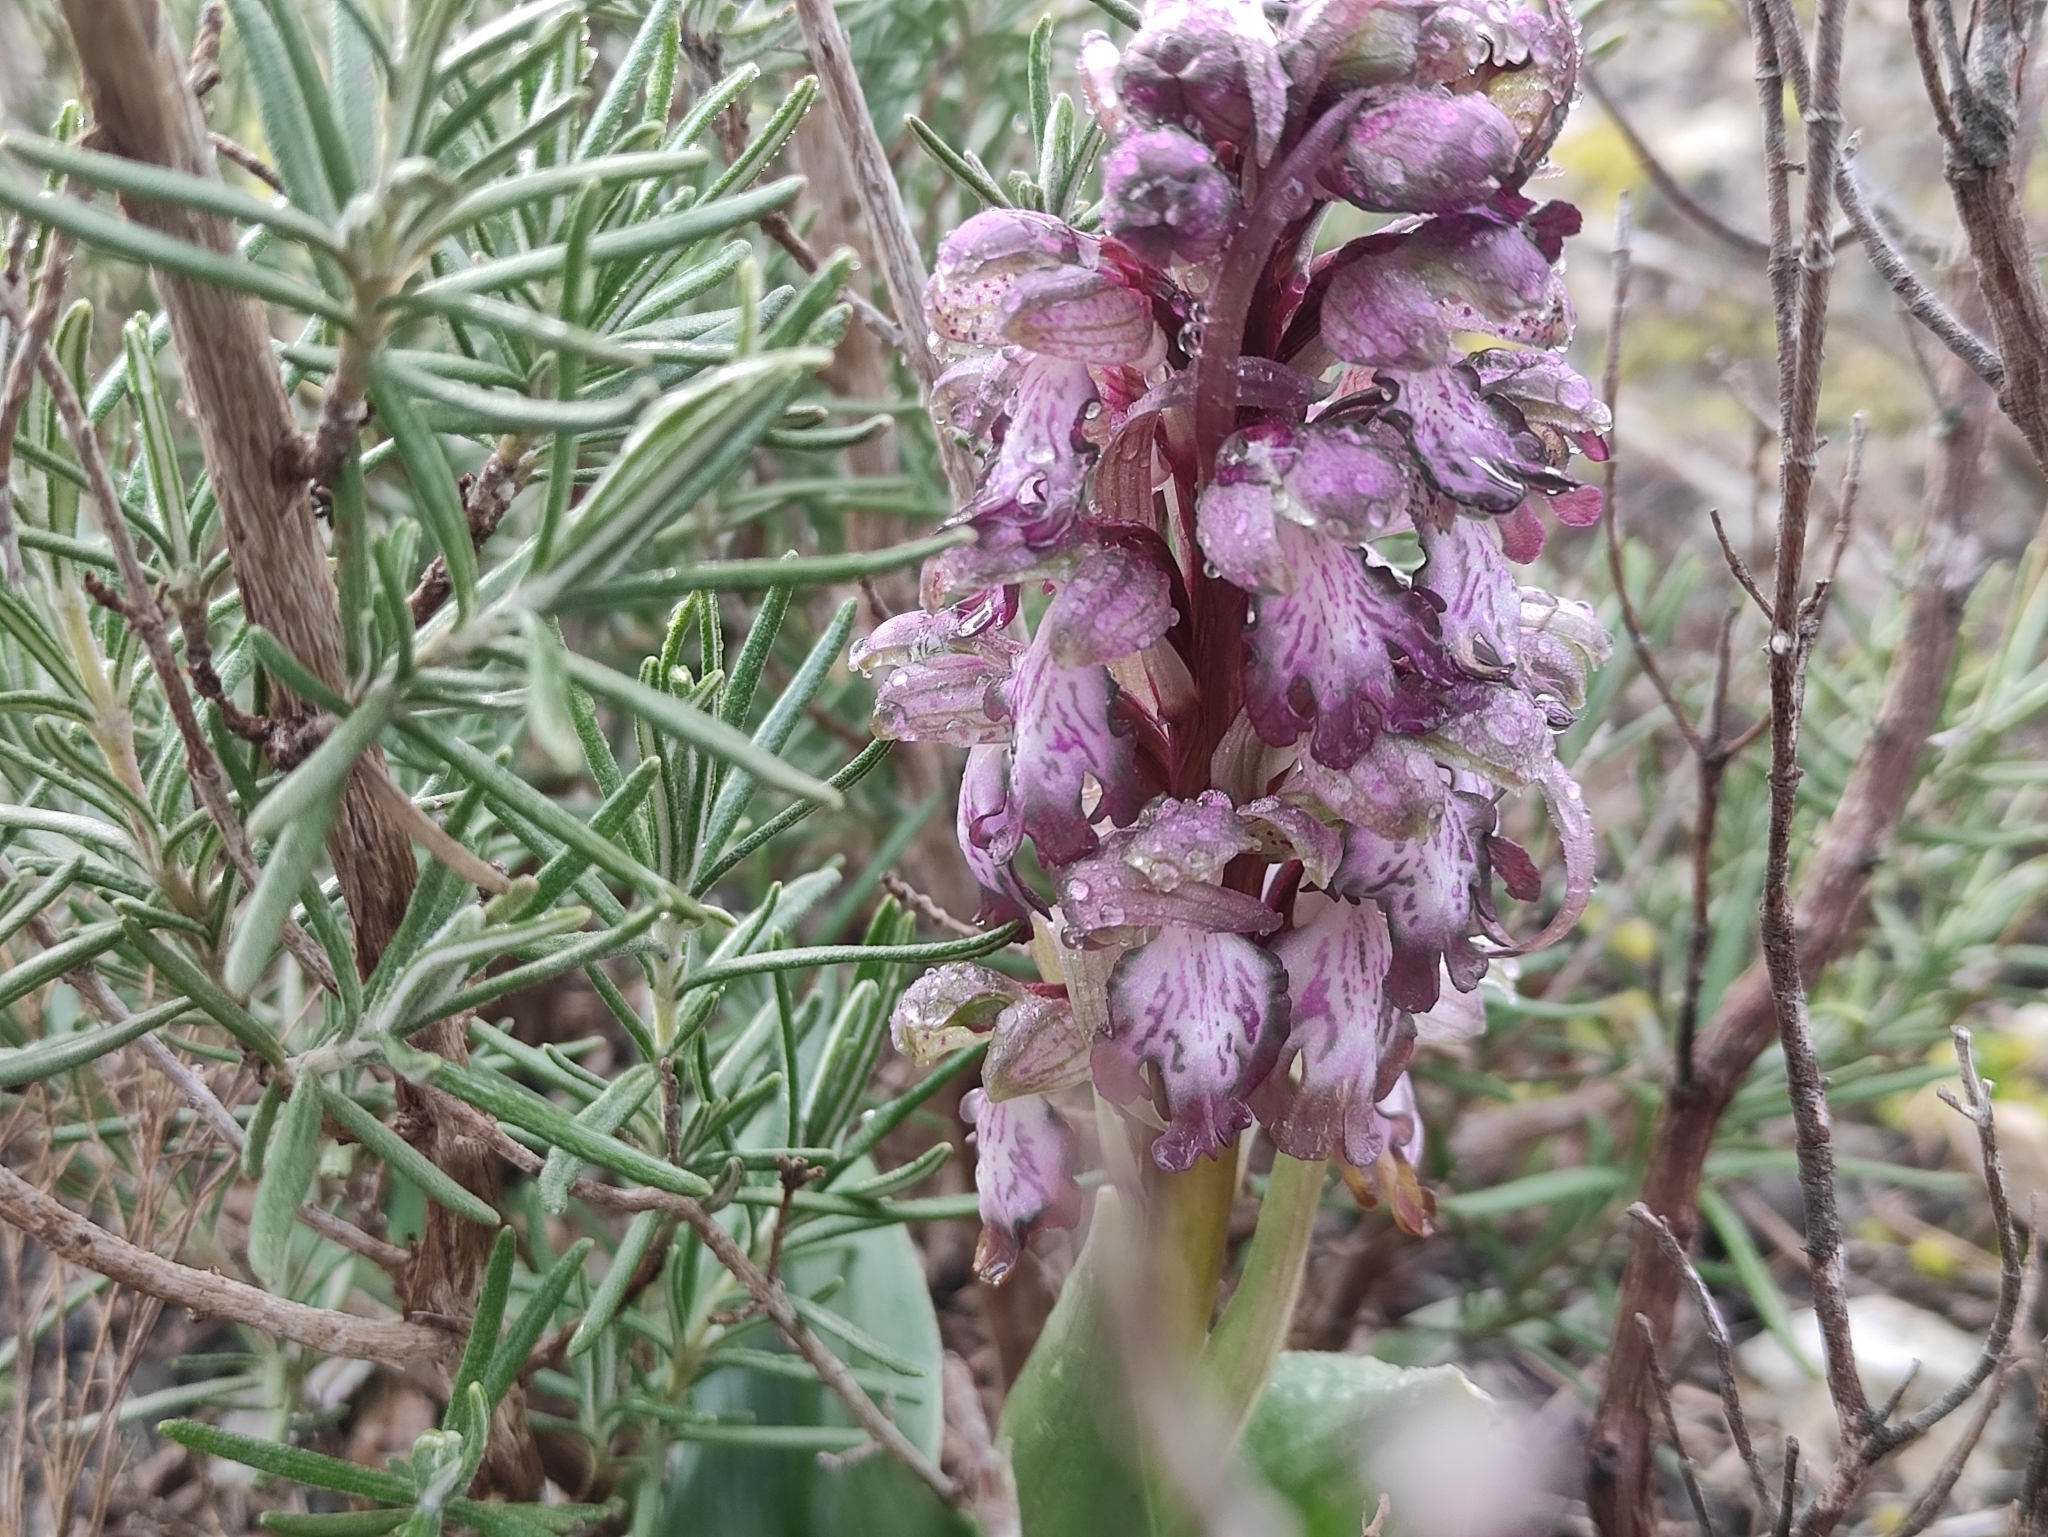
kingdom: Plantae
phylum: Tracheophyta
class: Liliopsida
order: Asparagales
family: Orchidaceae
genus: Himantoglossum
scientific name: Himantoglossum robertianum
